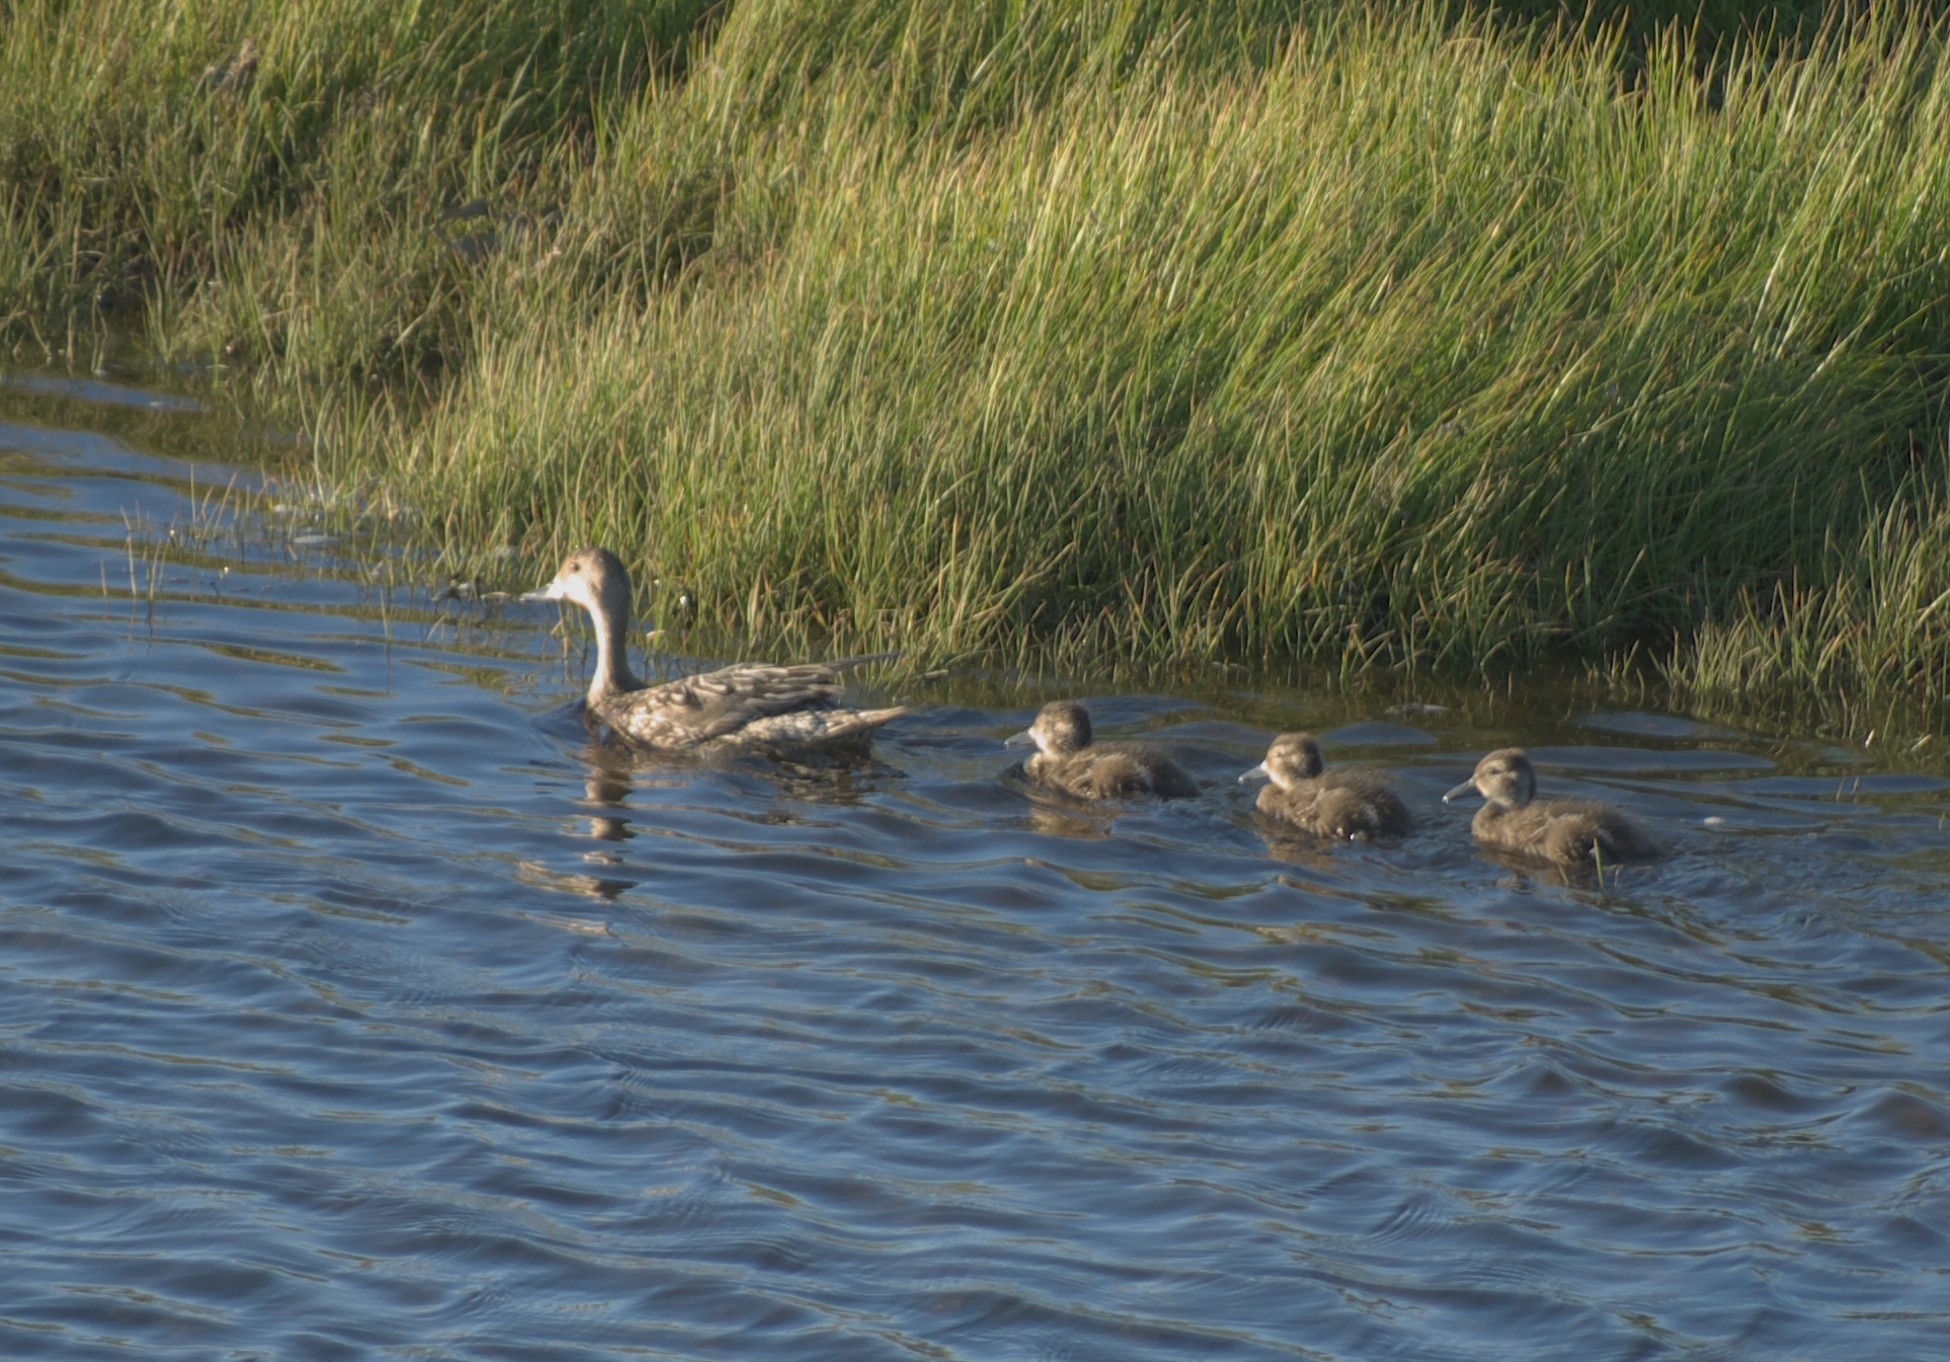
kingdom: Animalia
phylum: Chordata
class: Aves
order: Anseriformes
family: Anatidae
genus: Anas
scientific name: Anas acuta
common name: Northern pintail
